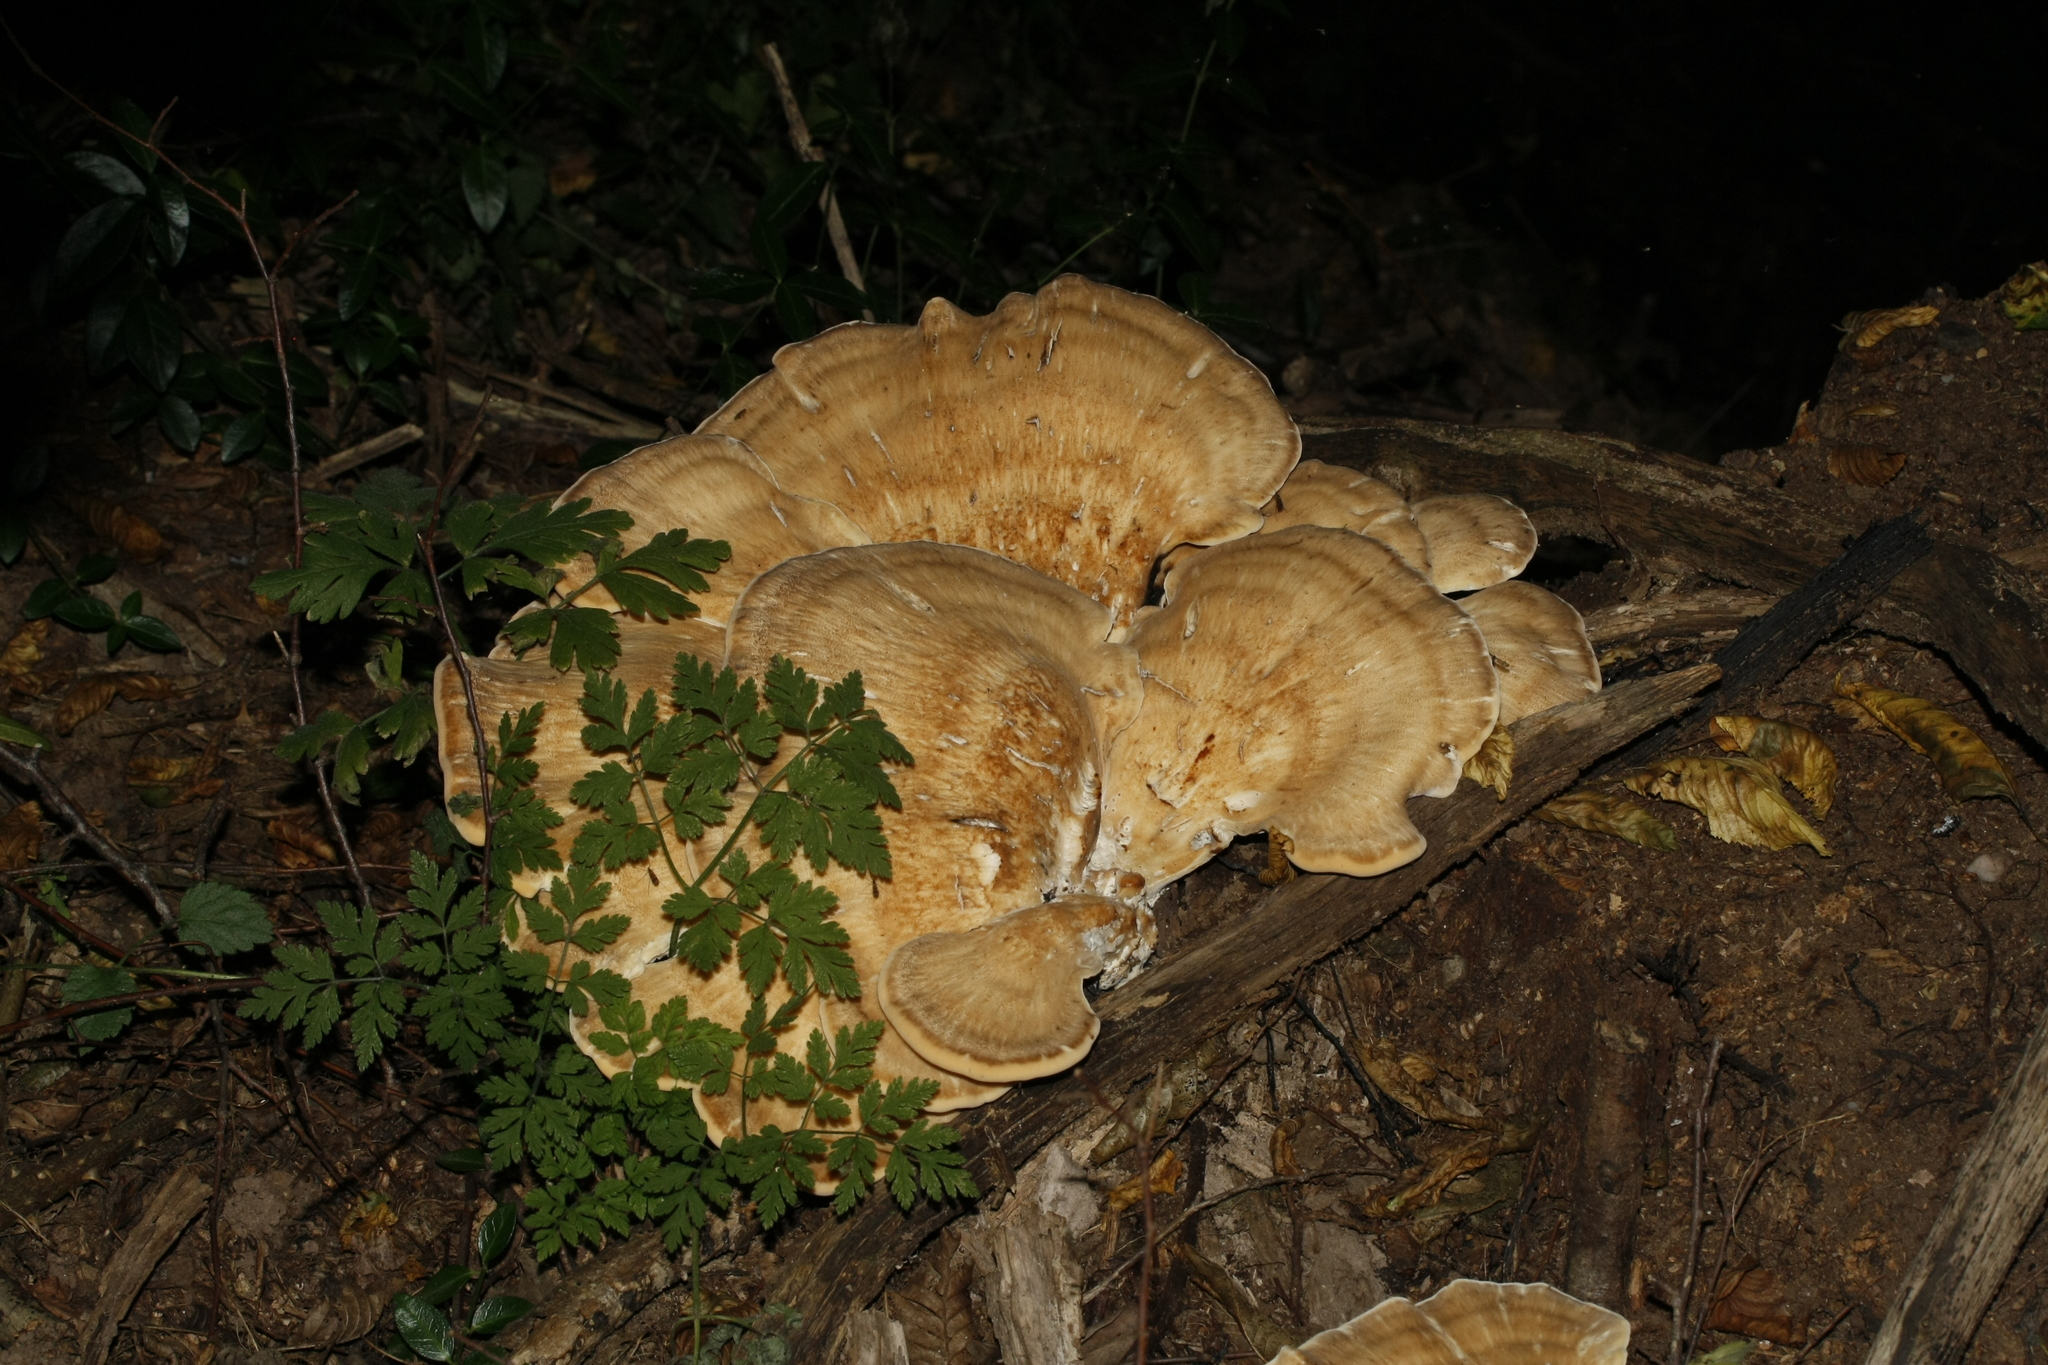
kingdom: Fungi
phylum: Basidiomycota
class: Agaricomycetes
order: Polyporales
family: Meripilaceae
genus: Meripilus
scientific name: Meripilus giganteus
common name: Giant polypore
